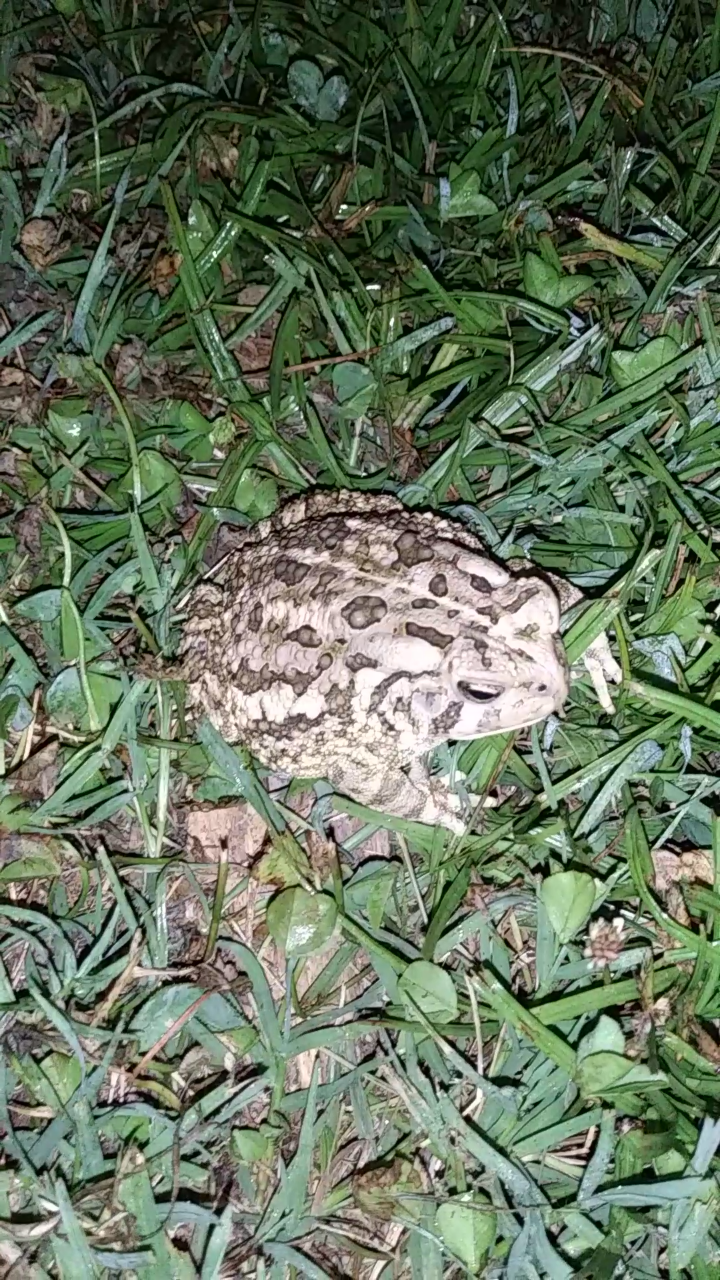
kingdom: Animalia
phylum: Chordata
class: Amphibia
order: Anura
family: Bufonidae
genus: Anaxyrus
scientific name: Anaxyrus fowleri
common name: Fowler's toad
